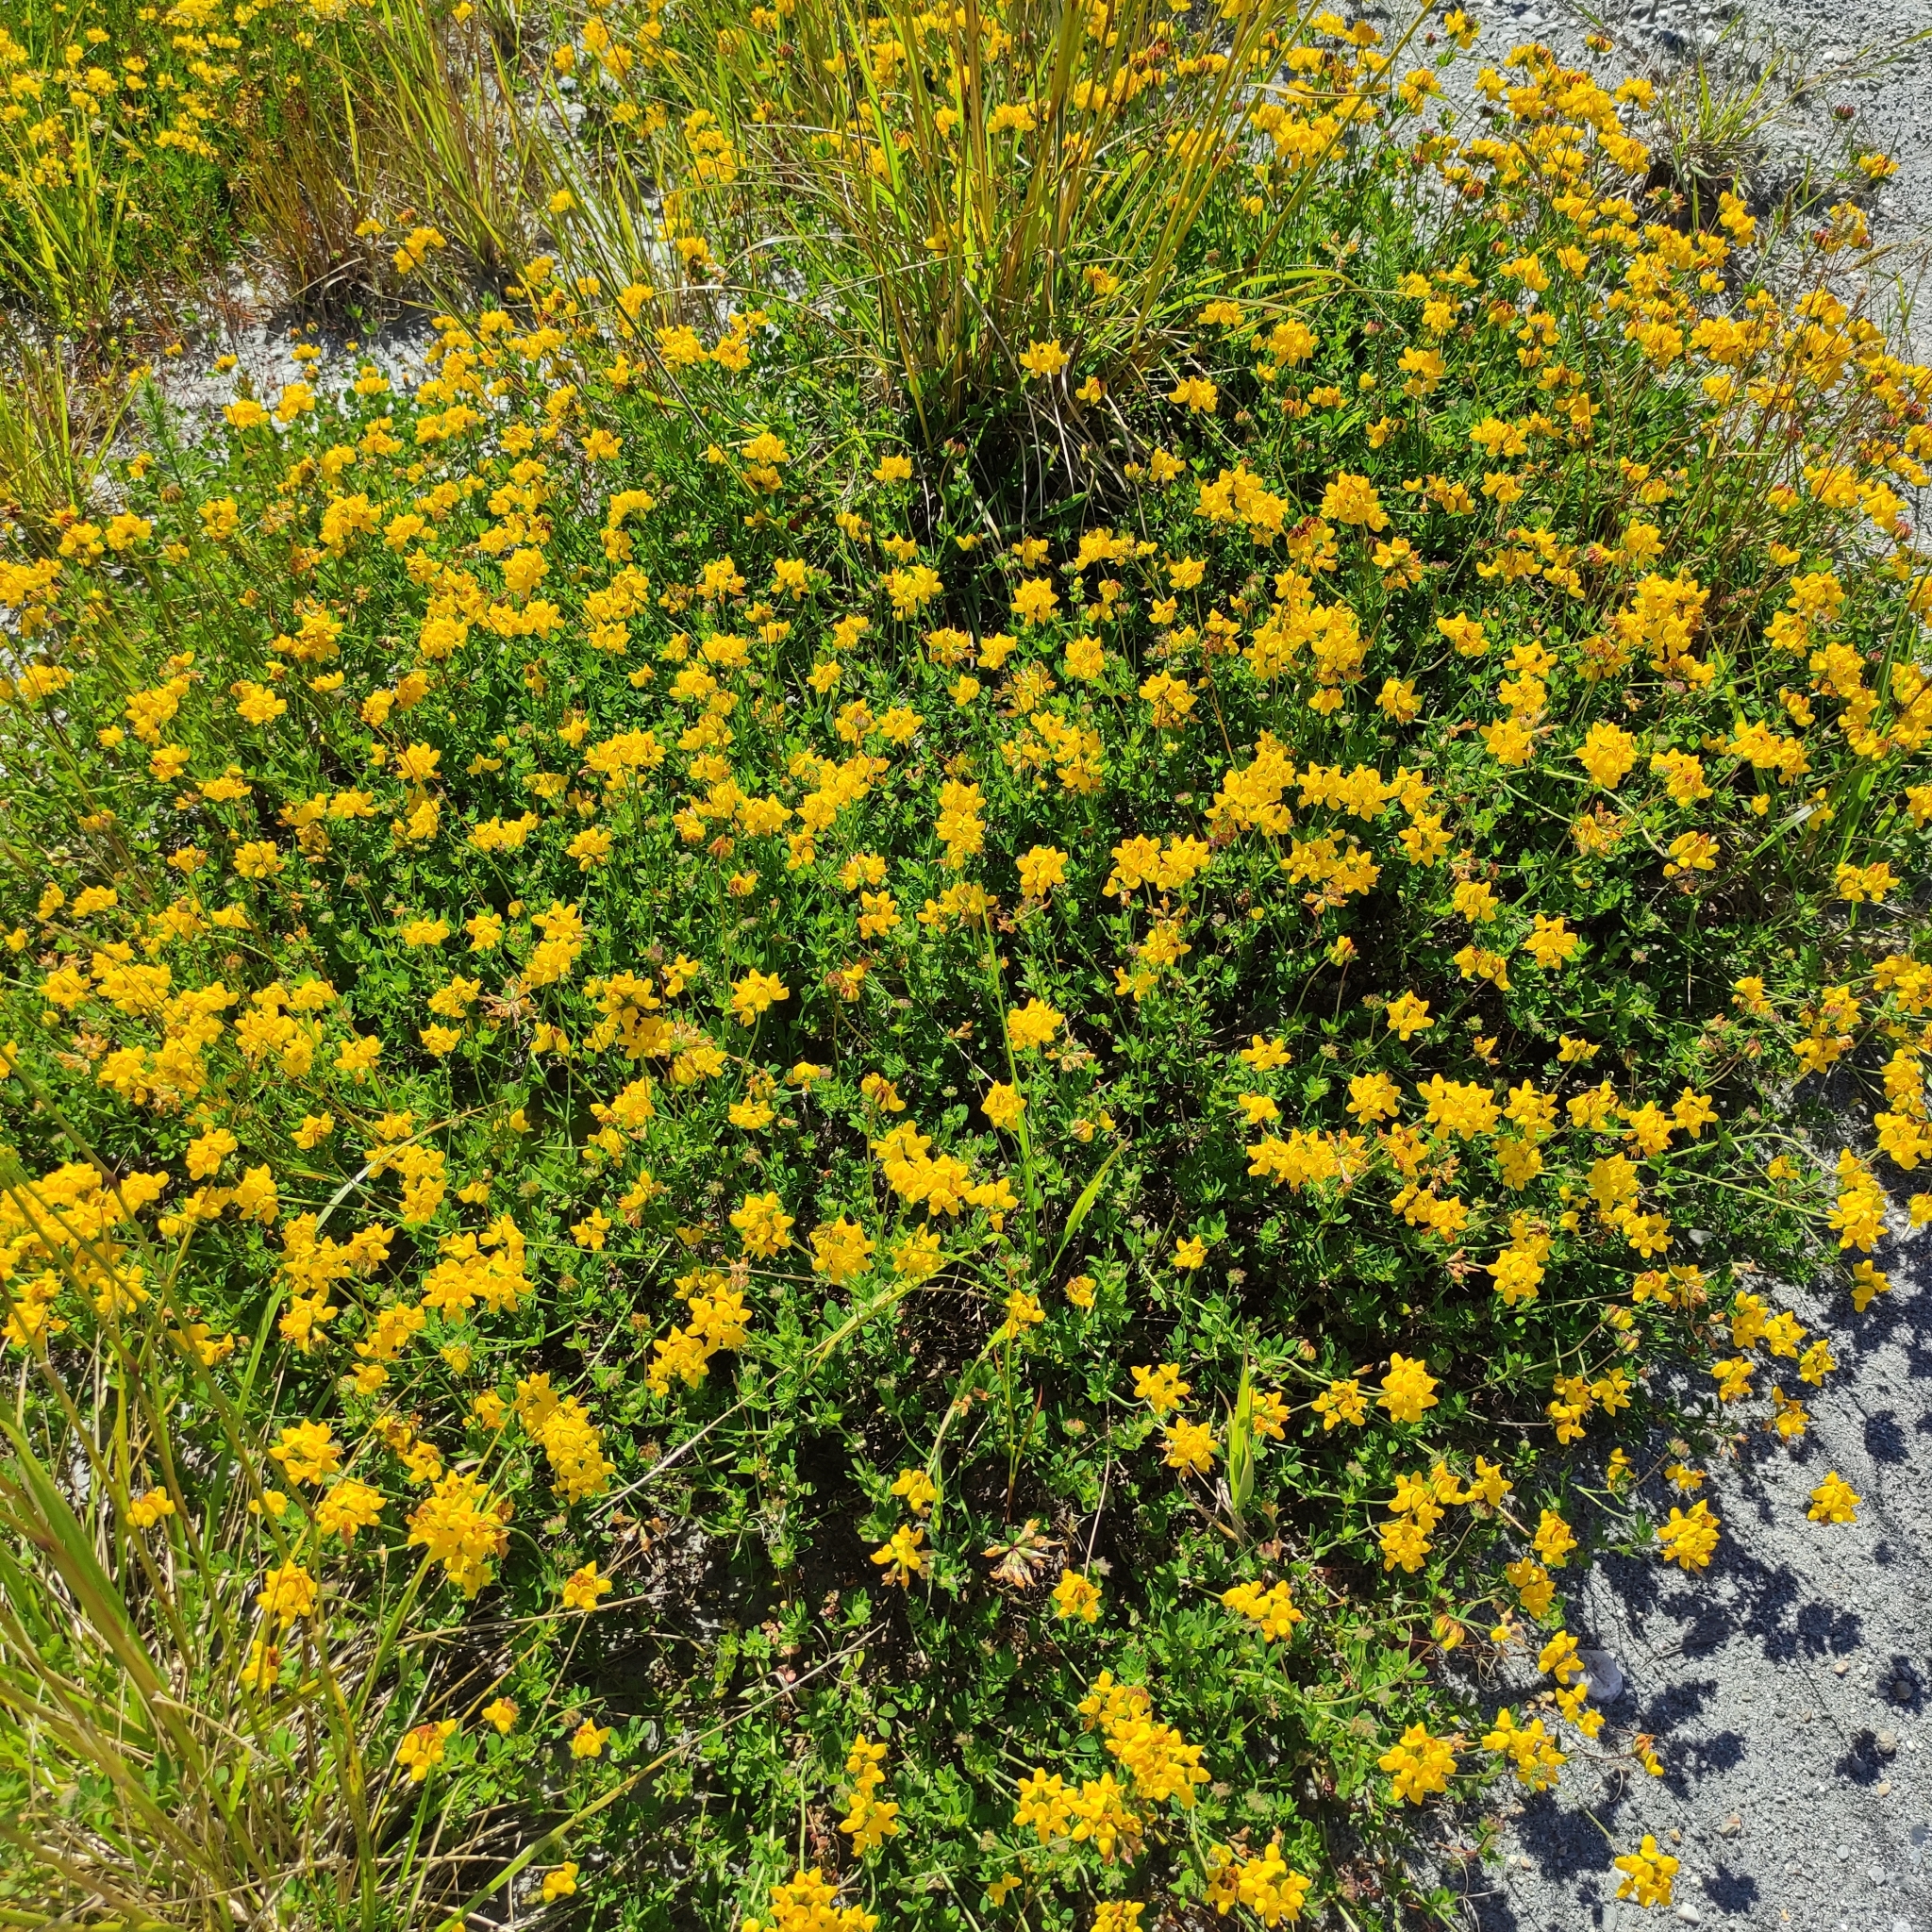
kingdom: Plantae
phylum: Tracheophyta
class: Magnoliopsida
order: Fabales
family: Fabaceae
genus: Lotus
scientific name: Lotus pedunculatus
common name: Greater birdsfoot-trefoil
